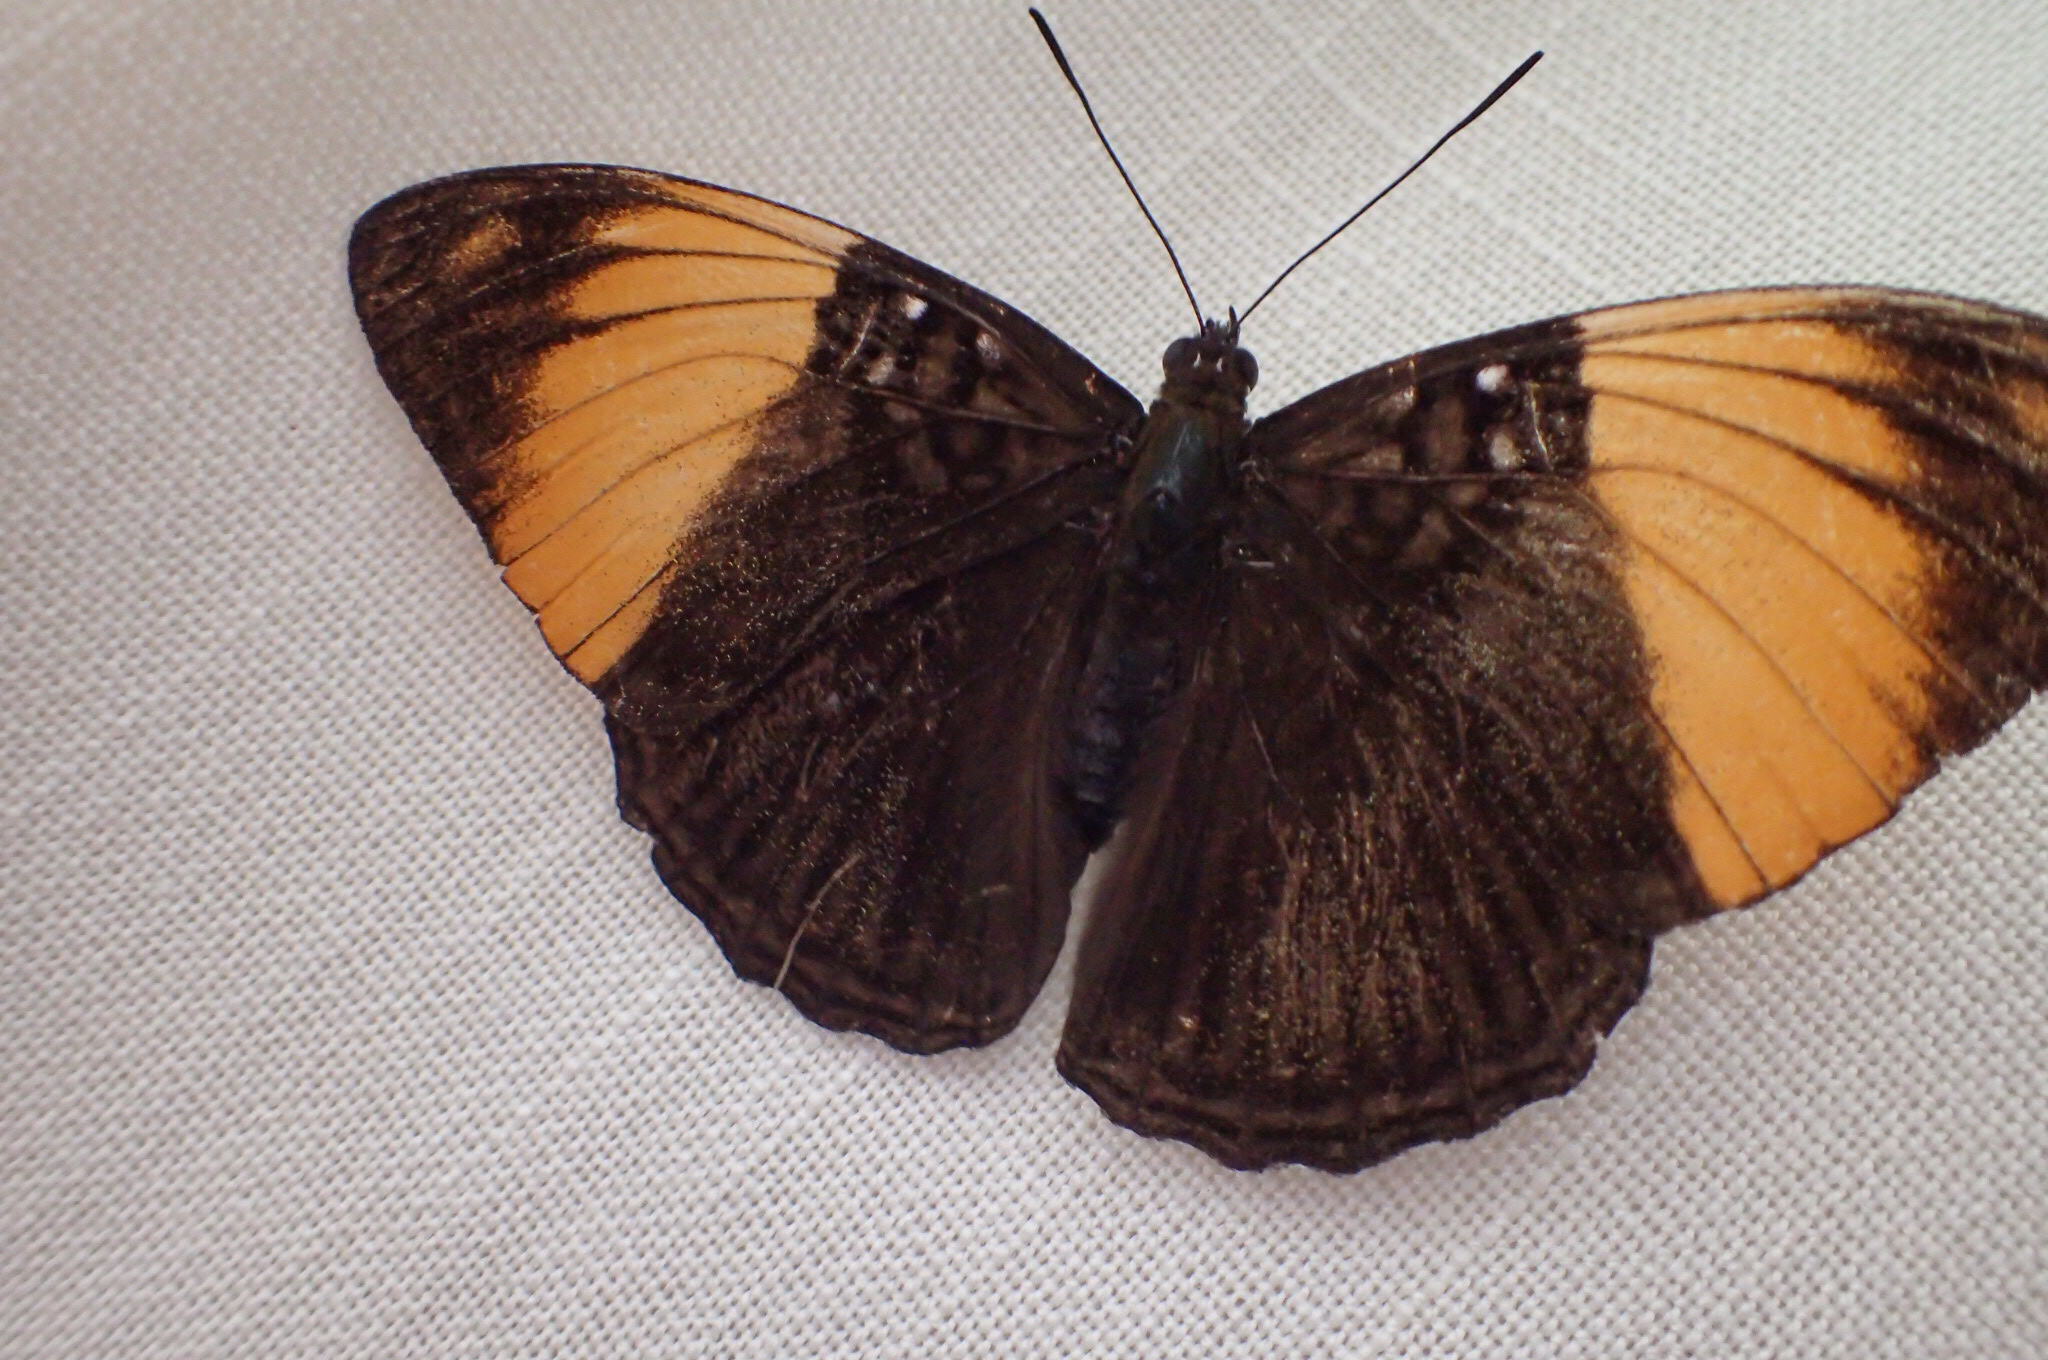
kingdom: Animalia
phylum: Arthropoda
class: Insecta
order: Lepidoptera
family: Nymphalidae
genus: Limenitis
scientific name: Limenitis melanthe
